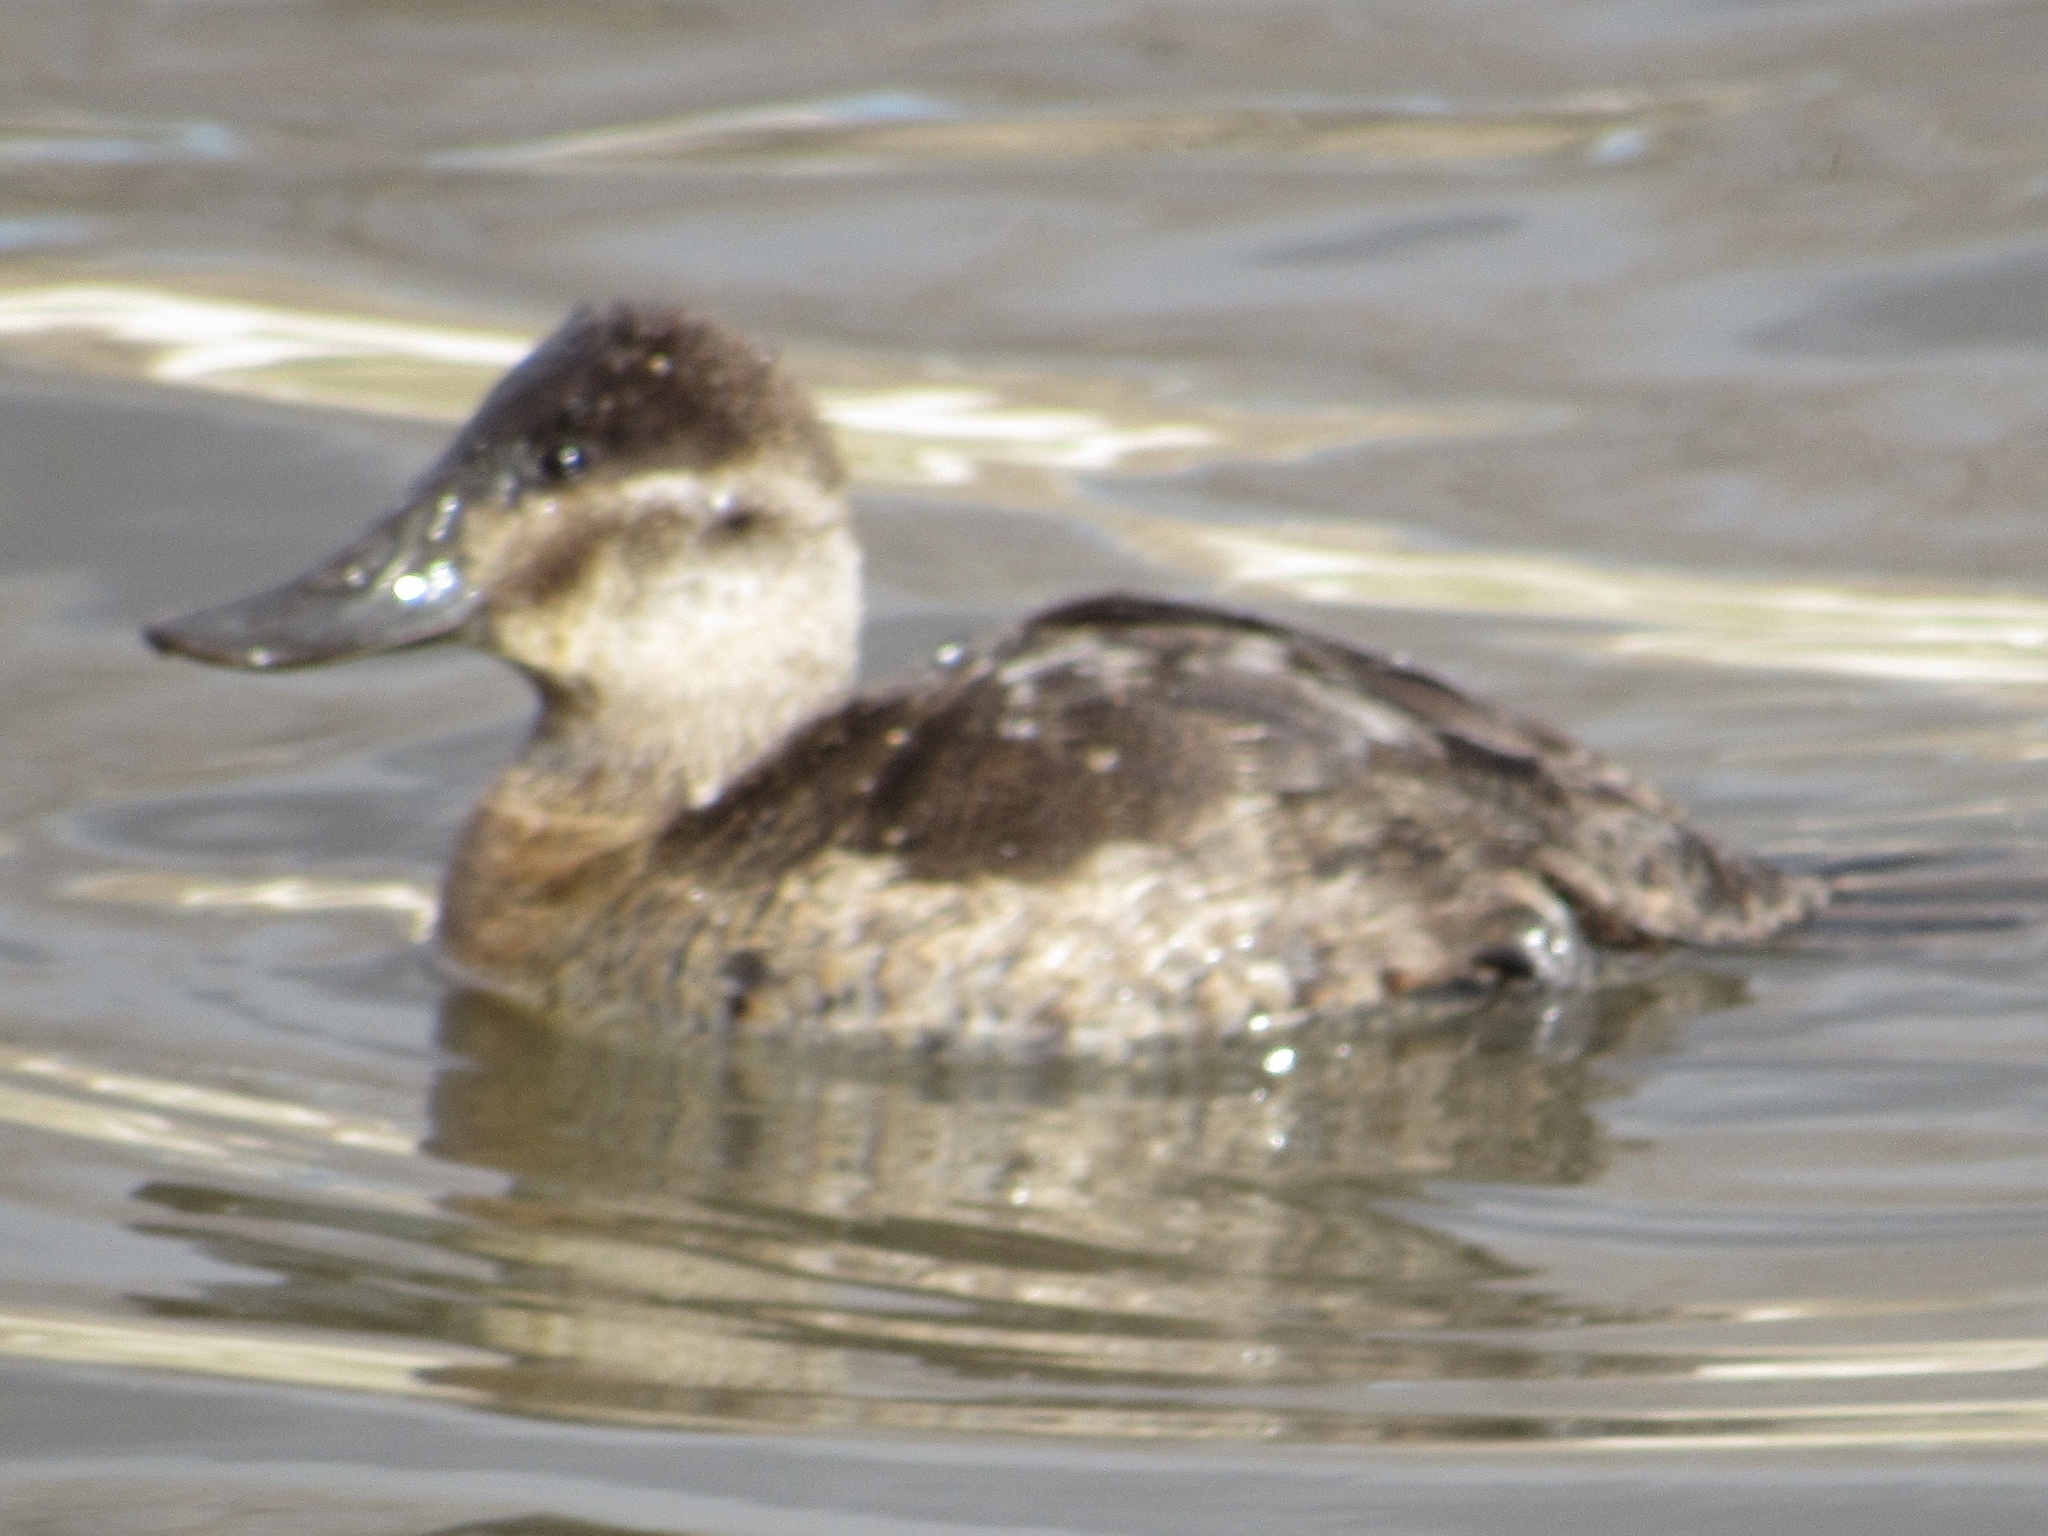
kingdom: Animalia
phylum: Chordata
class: Aves
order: Anseriformes
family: Anatidae
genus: Oxyura
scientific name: Oxyura jamaicensis
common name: Ruddy duck
